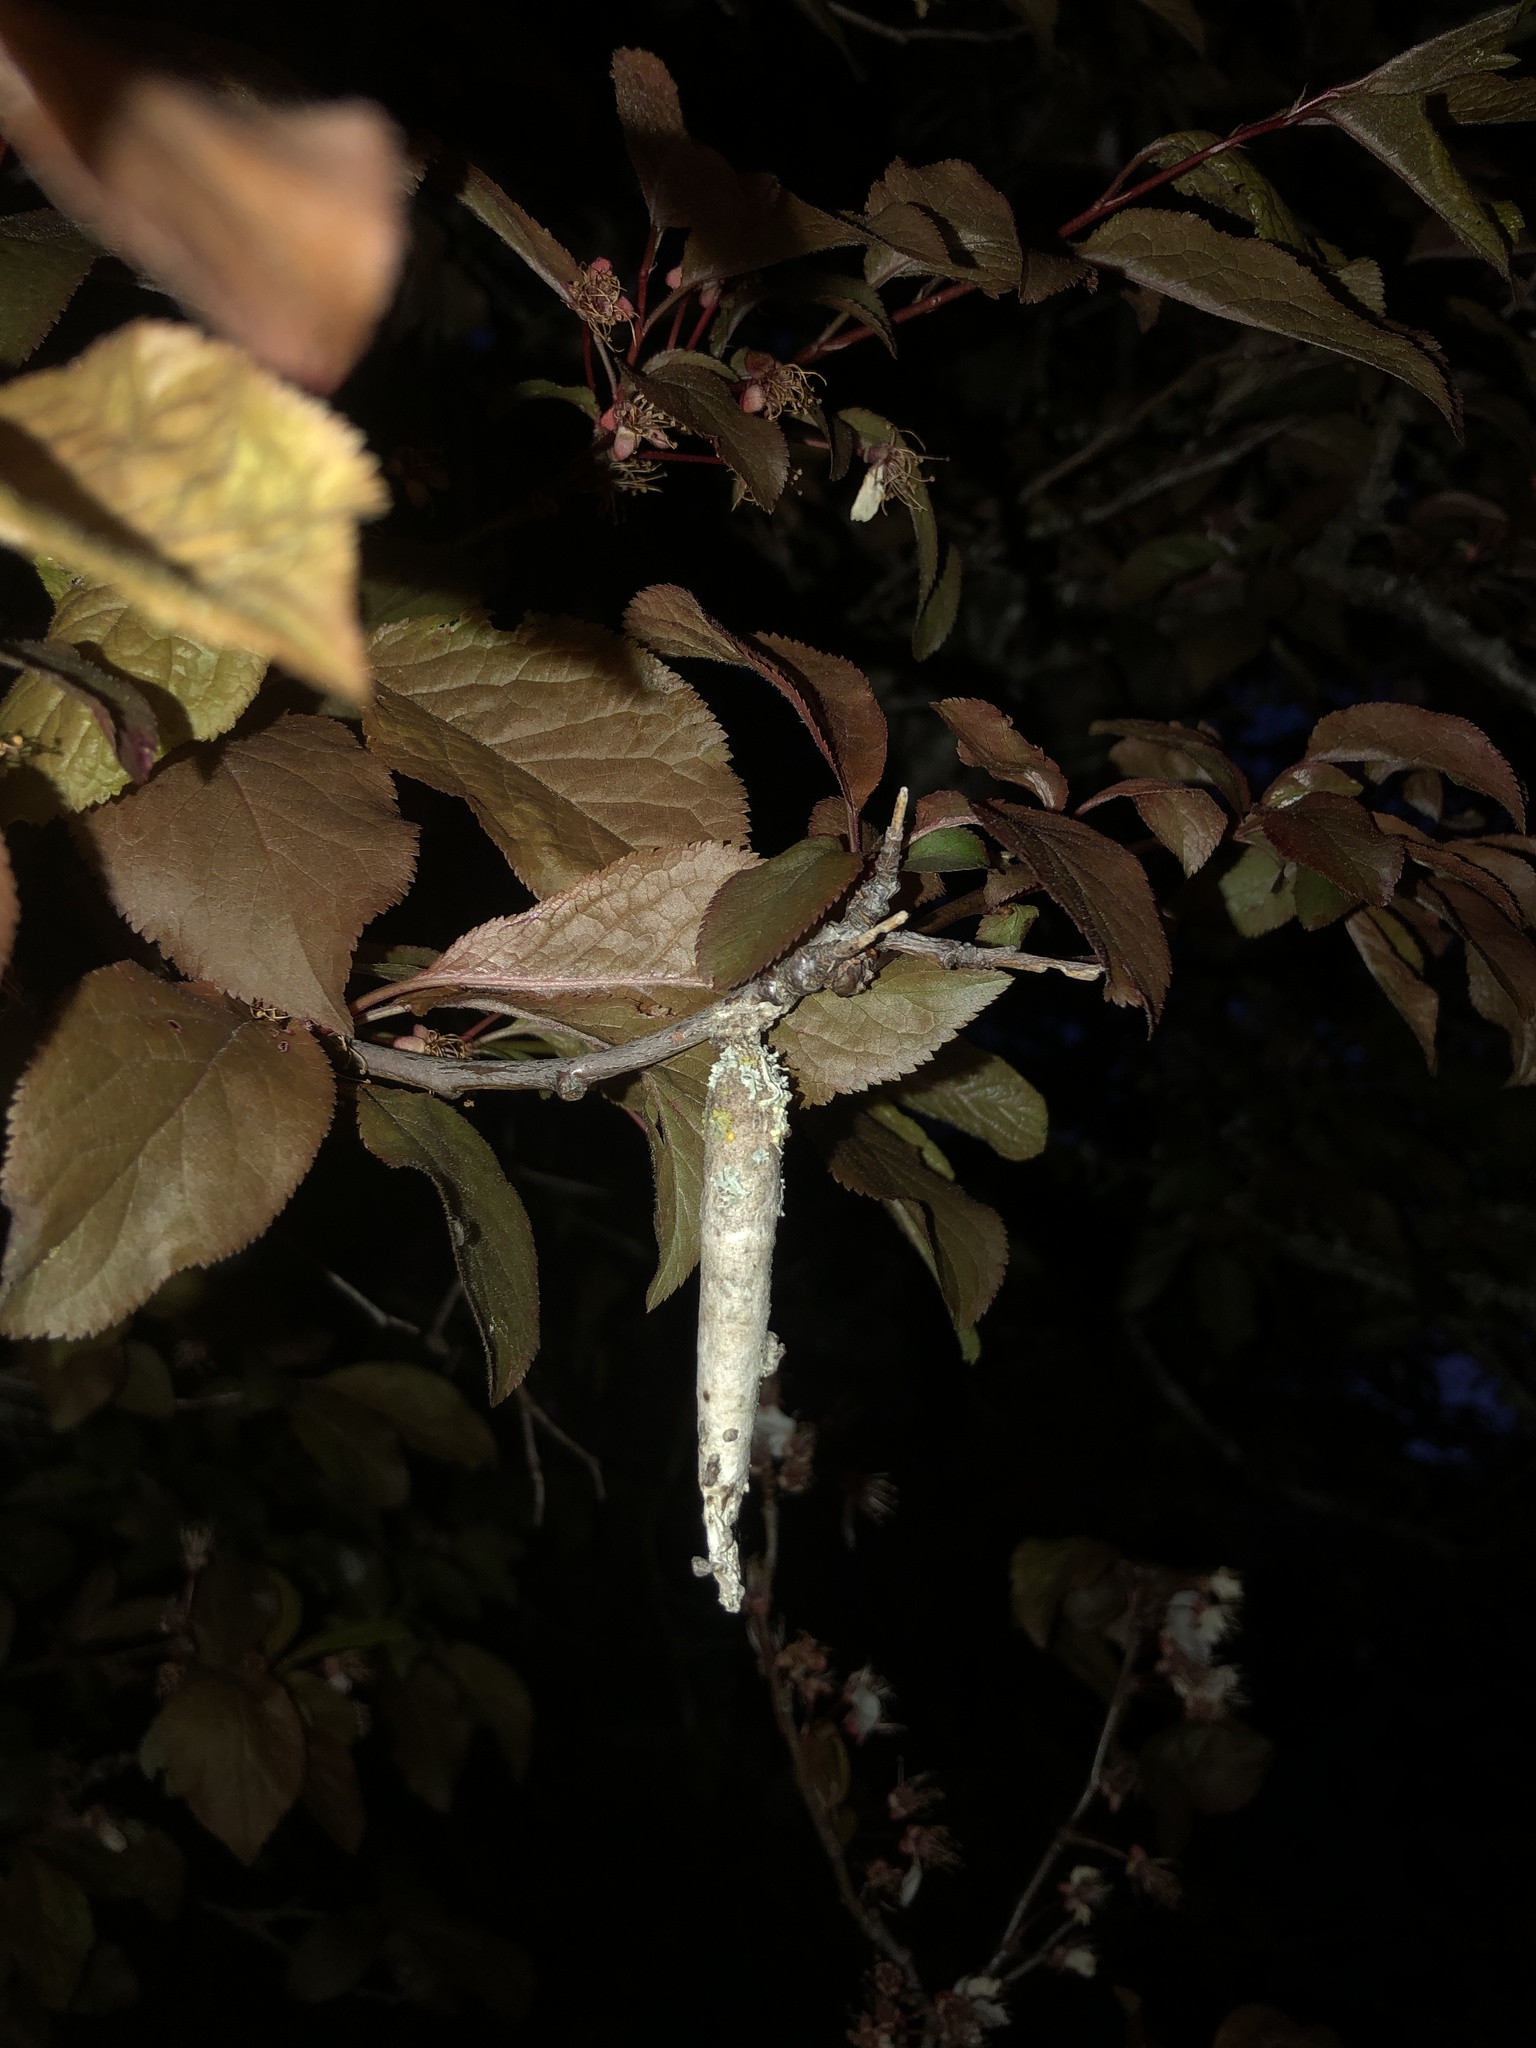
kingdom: Animalia
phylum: Arthropoda
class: Insecta
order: Lepidoptera
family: Psychidae
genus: Liothula
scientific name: Liothula omnivora
